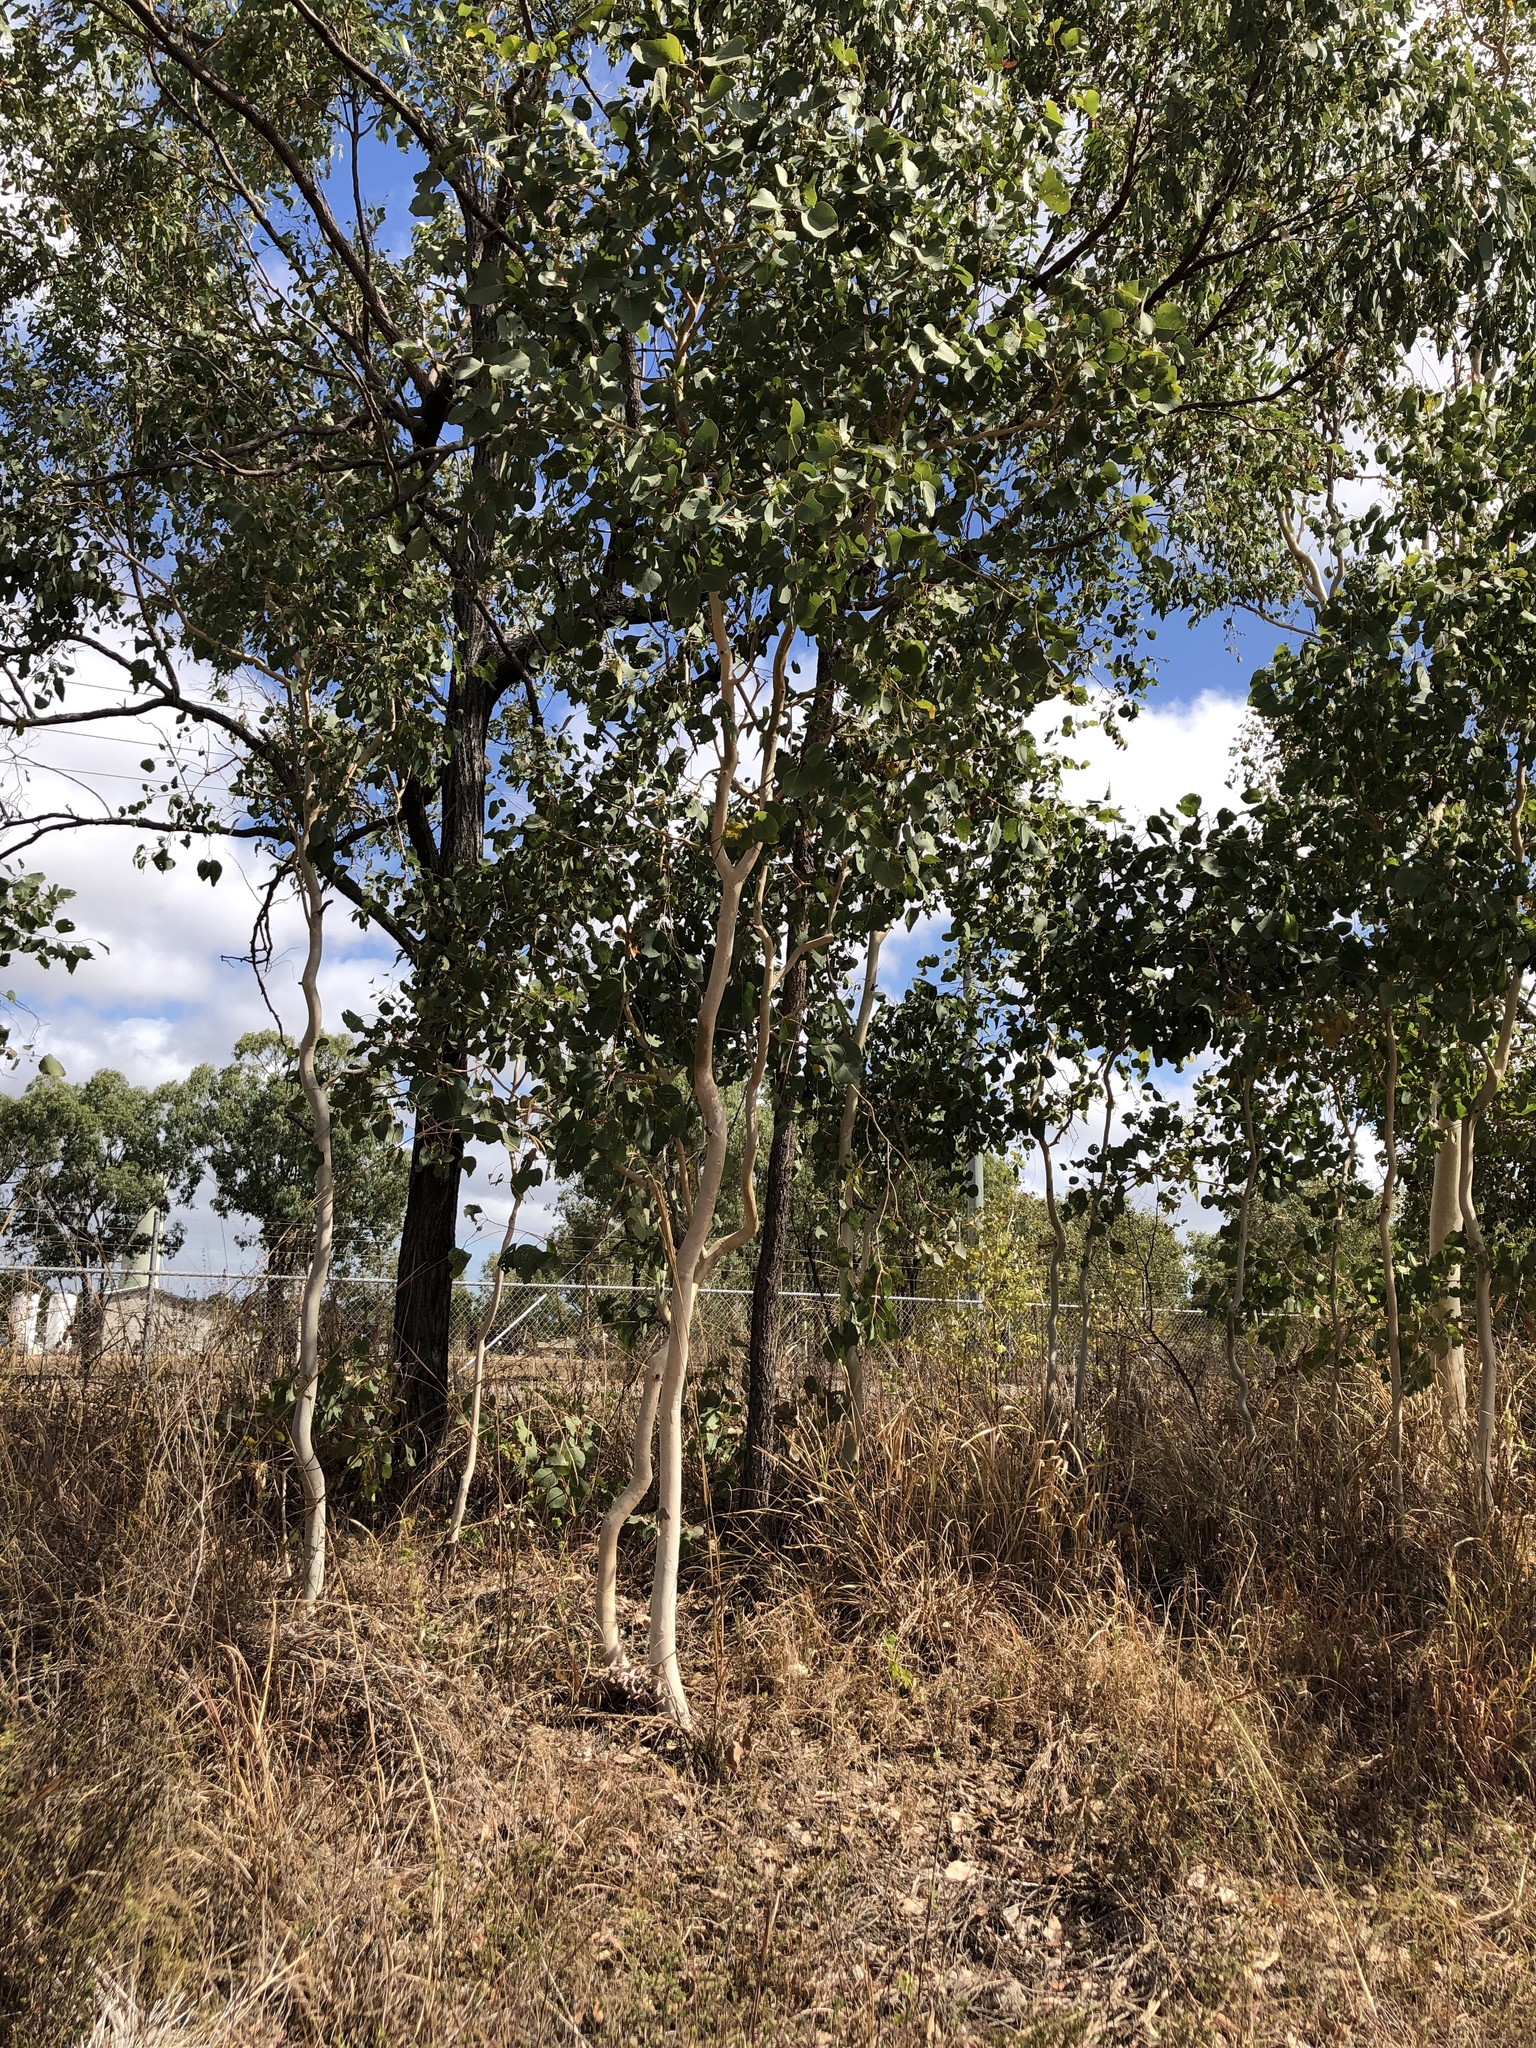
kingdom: Plantae
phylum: Tracheophyta
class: Magnoliopsida
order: Myrtales
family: Myrtaceae
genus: Eucalyptus
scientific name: Eucalyptus platyphylla
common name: Poplar-gum
